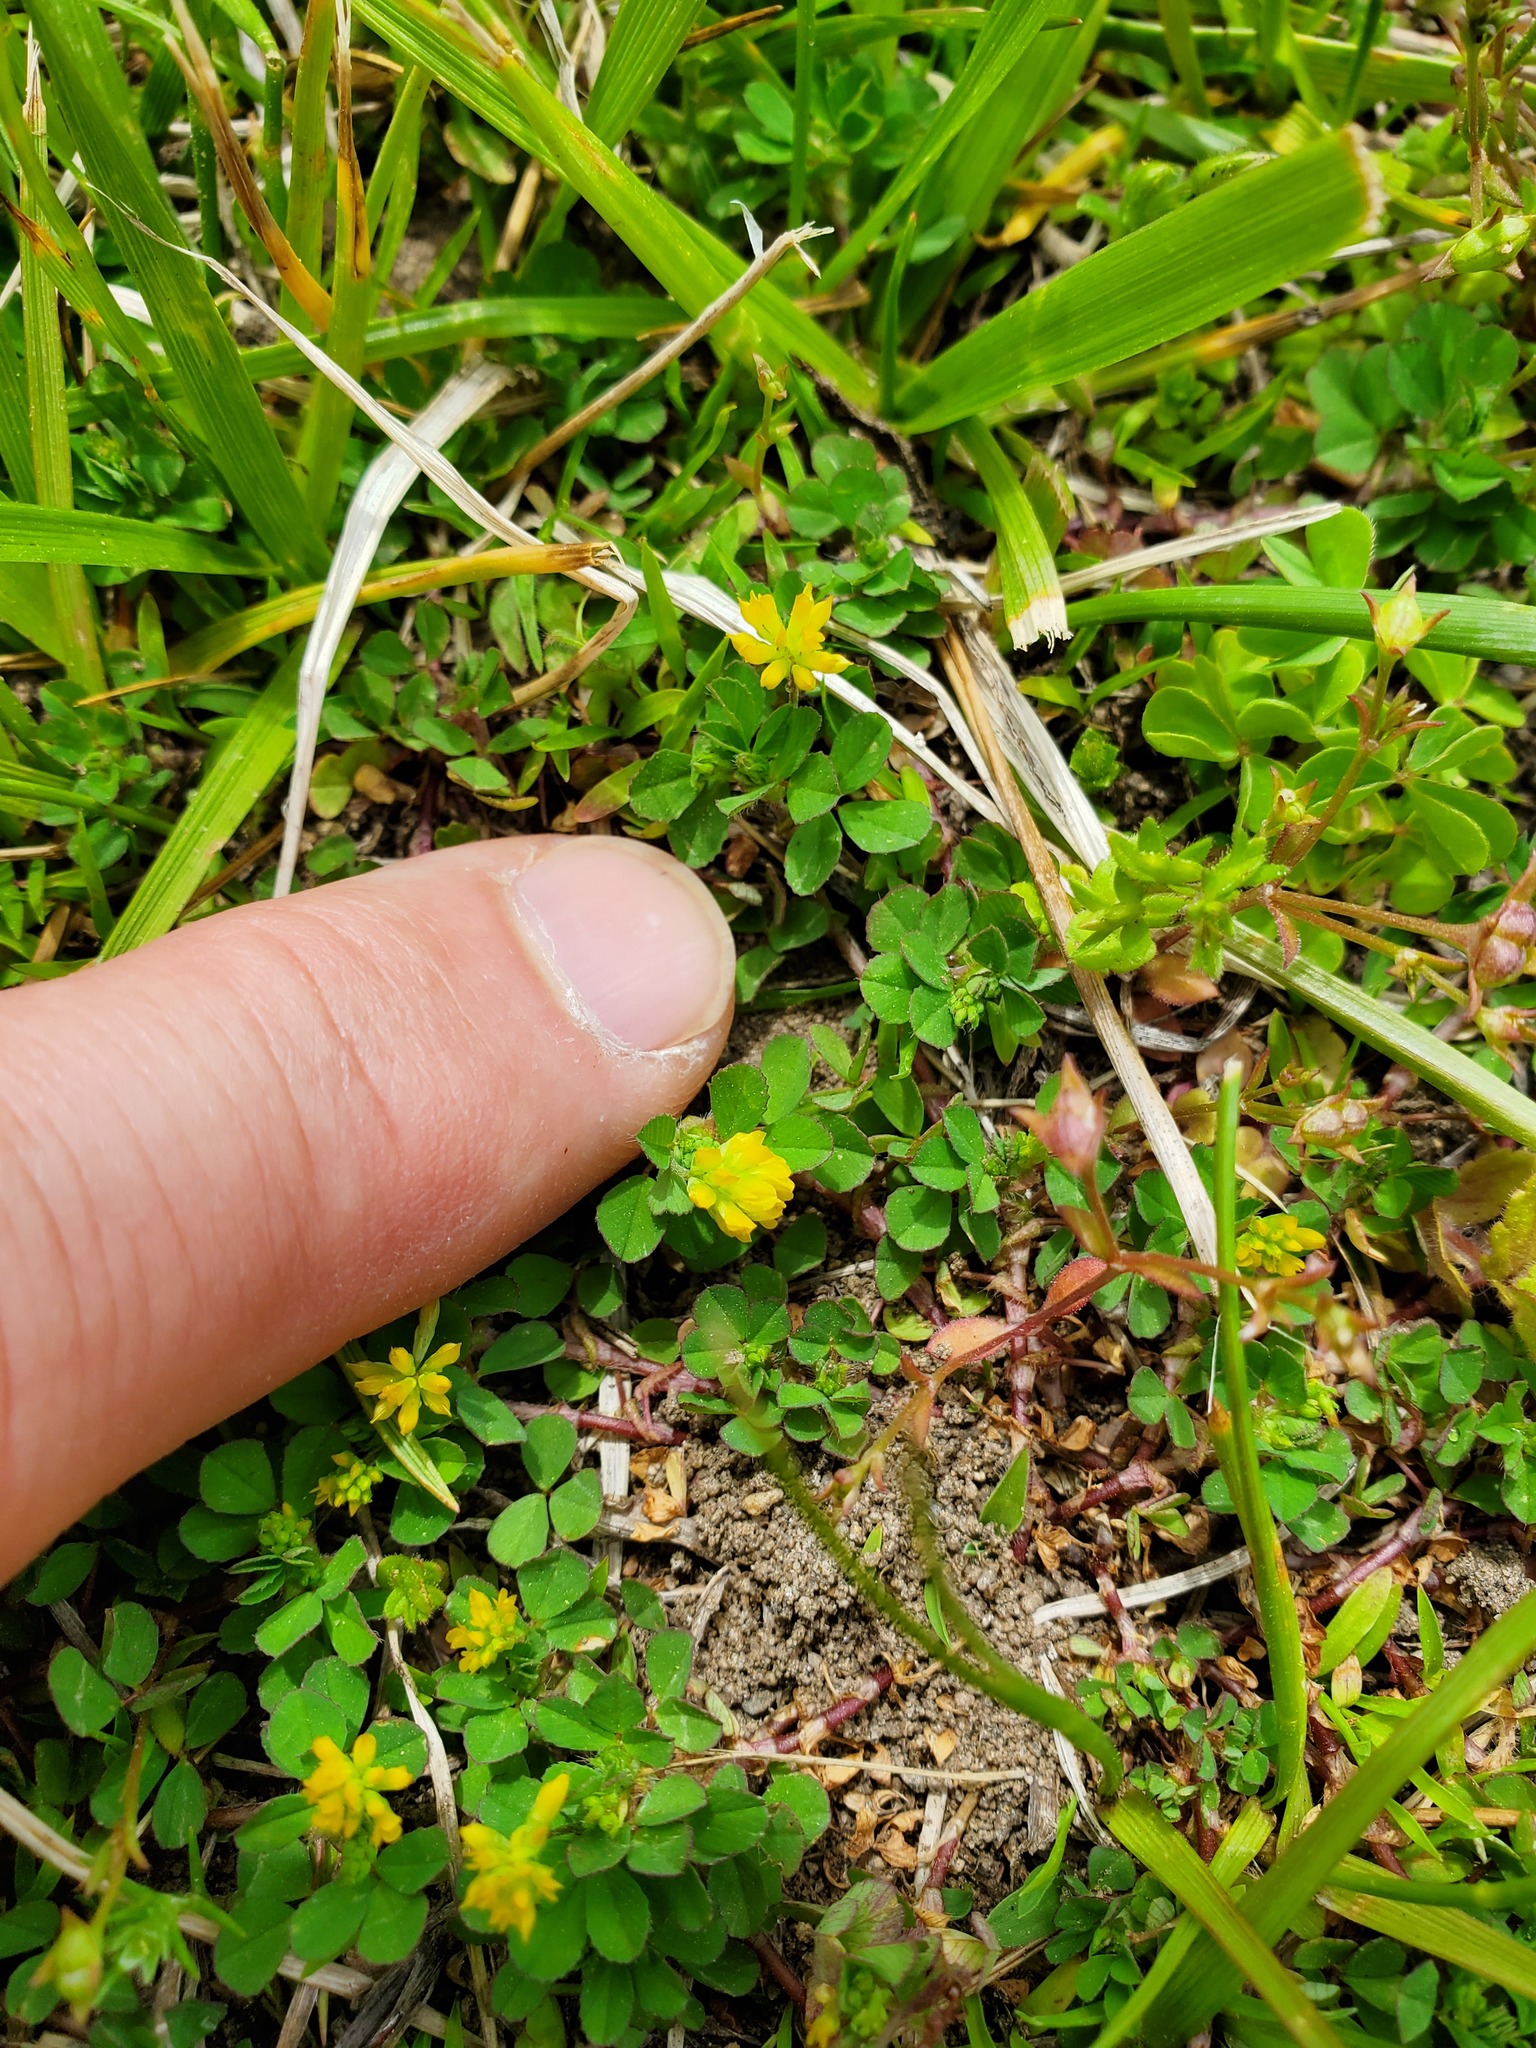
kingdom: Plantae
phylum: Tracheophyta
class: Magnoliopsida
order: Fabales
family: Fabaceae
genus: Trifolium
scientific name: Trifolium dubium
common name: Suckling clover
